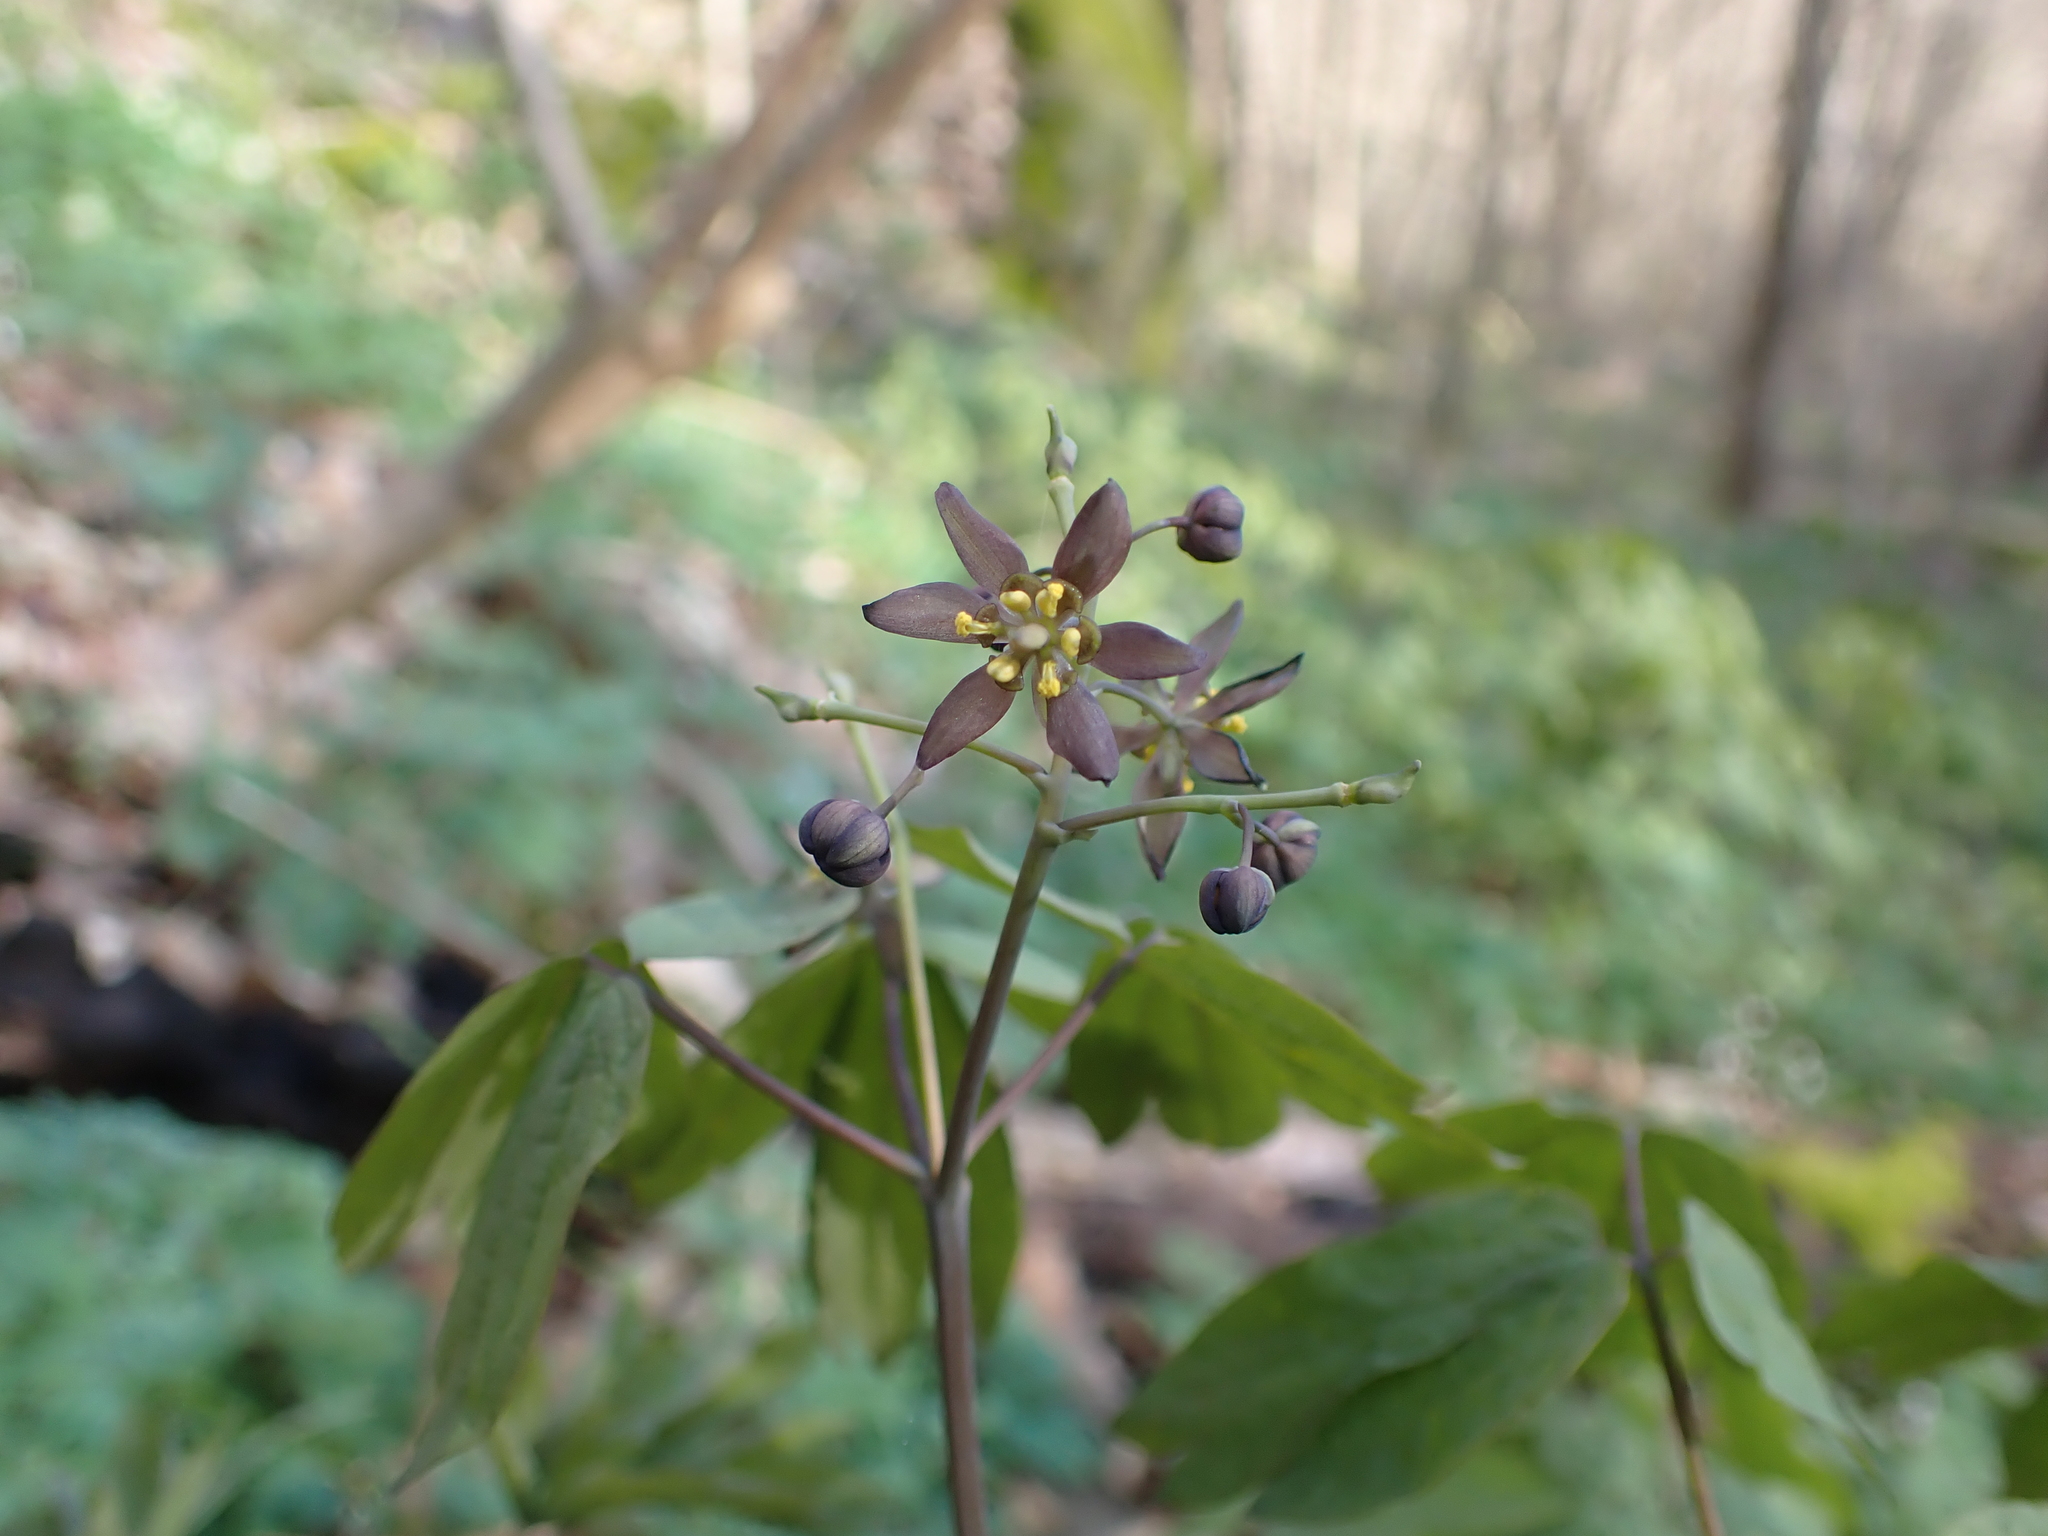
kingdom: Plantae
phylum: Tracheophyta
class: Magnoliopsida
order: Ranunculales
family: Berberidaceae
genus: Caulophyllum
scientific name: Caulophyllum giganteum
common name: Blue cohosh
